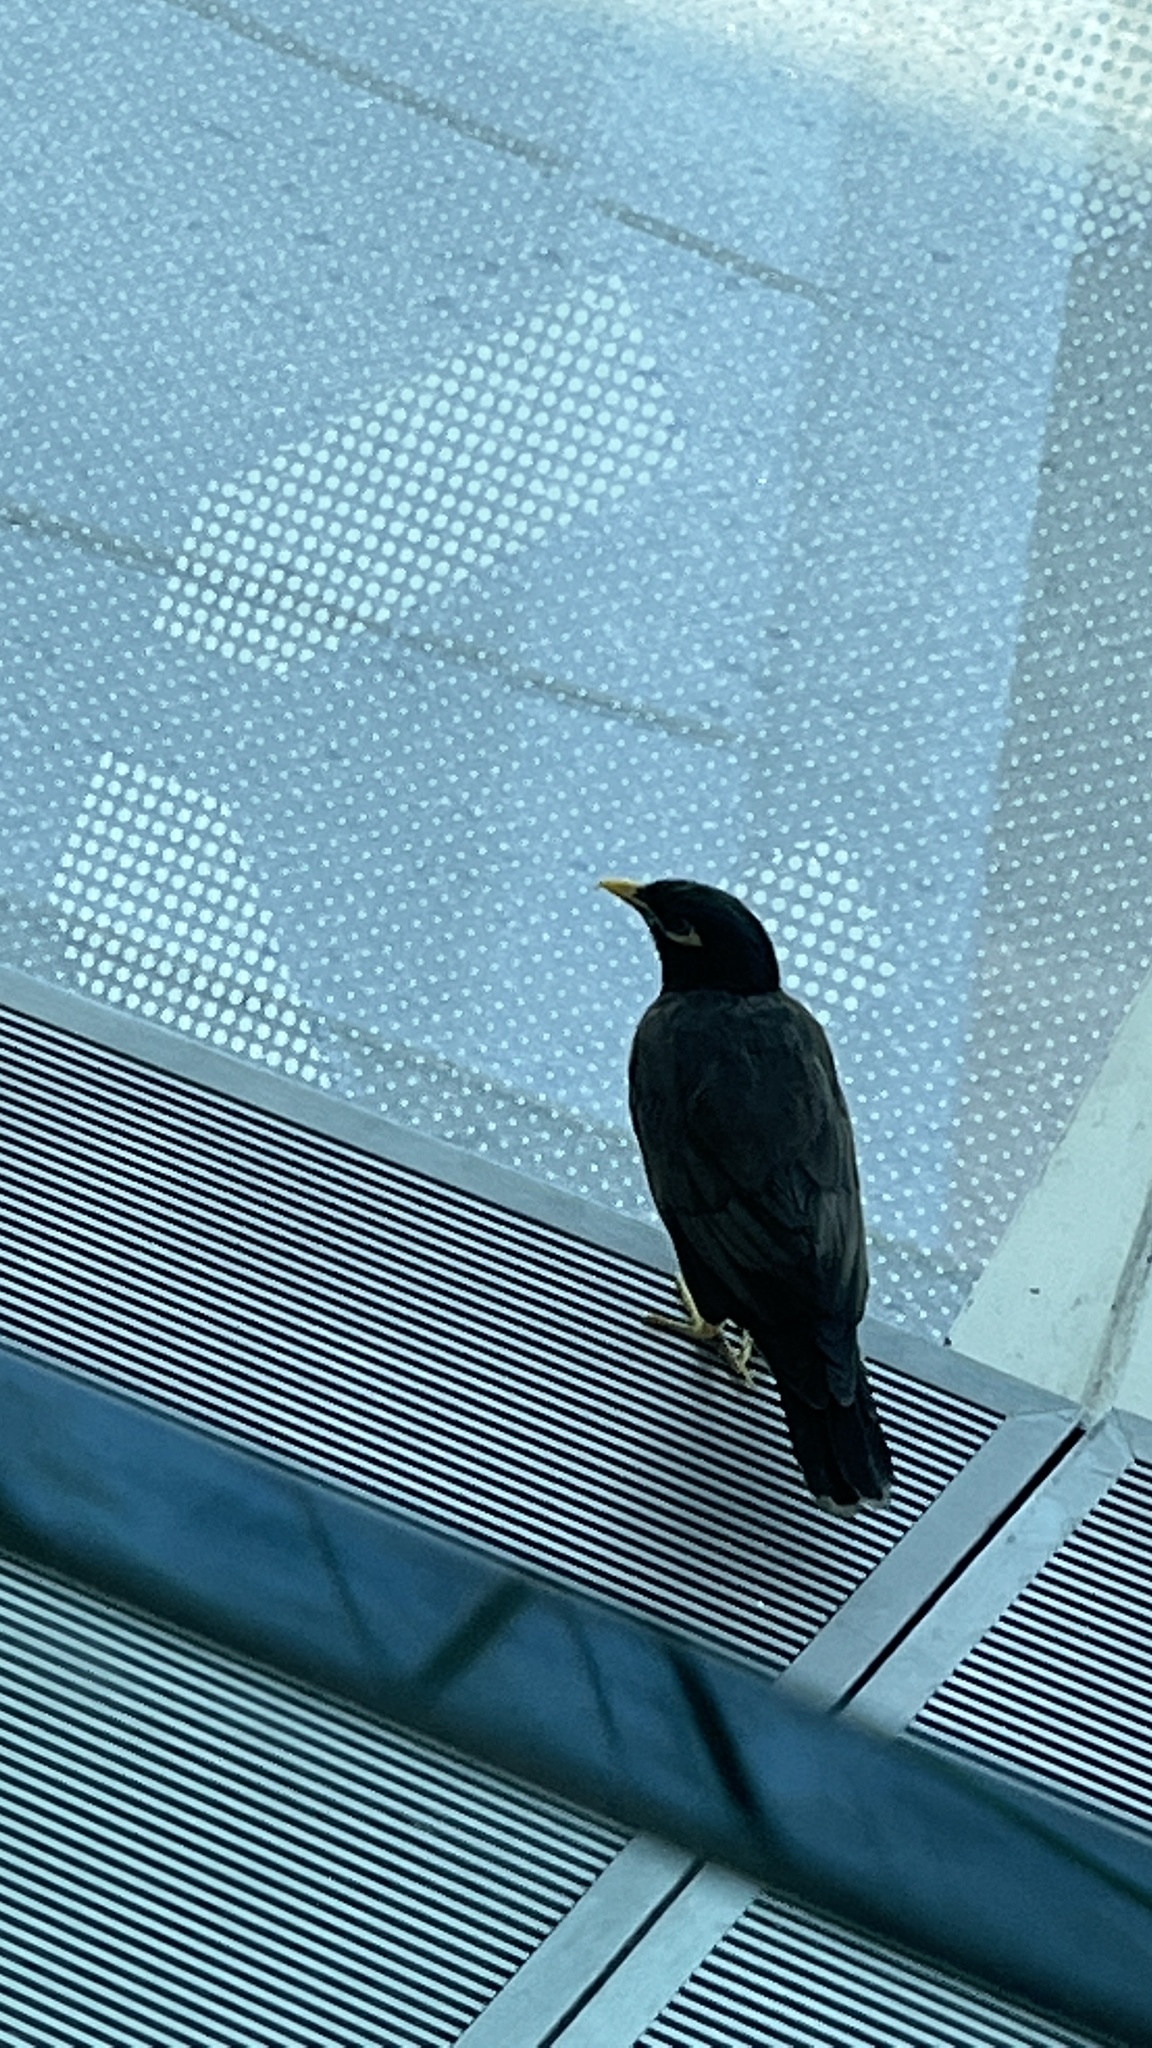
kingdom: Animalia
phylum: Chordata
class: Aves
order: Passeriformes
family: Sturnidae
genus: Acridotheres
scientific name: Acridotheres tristis
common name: Common myna
